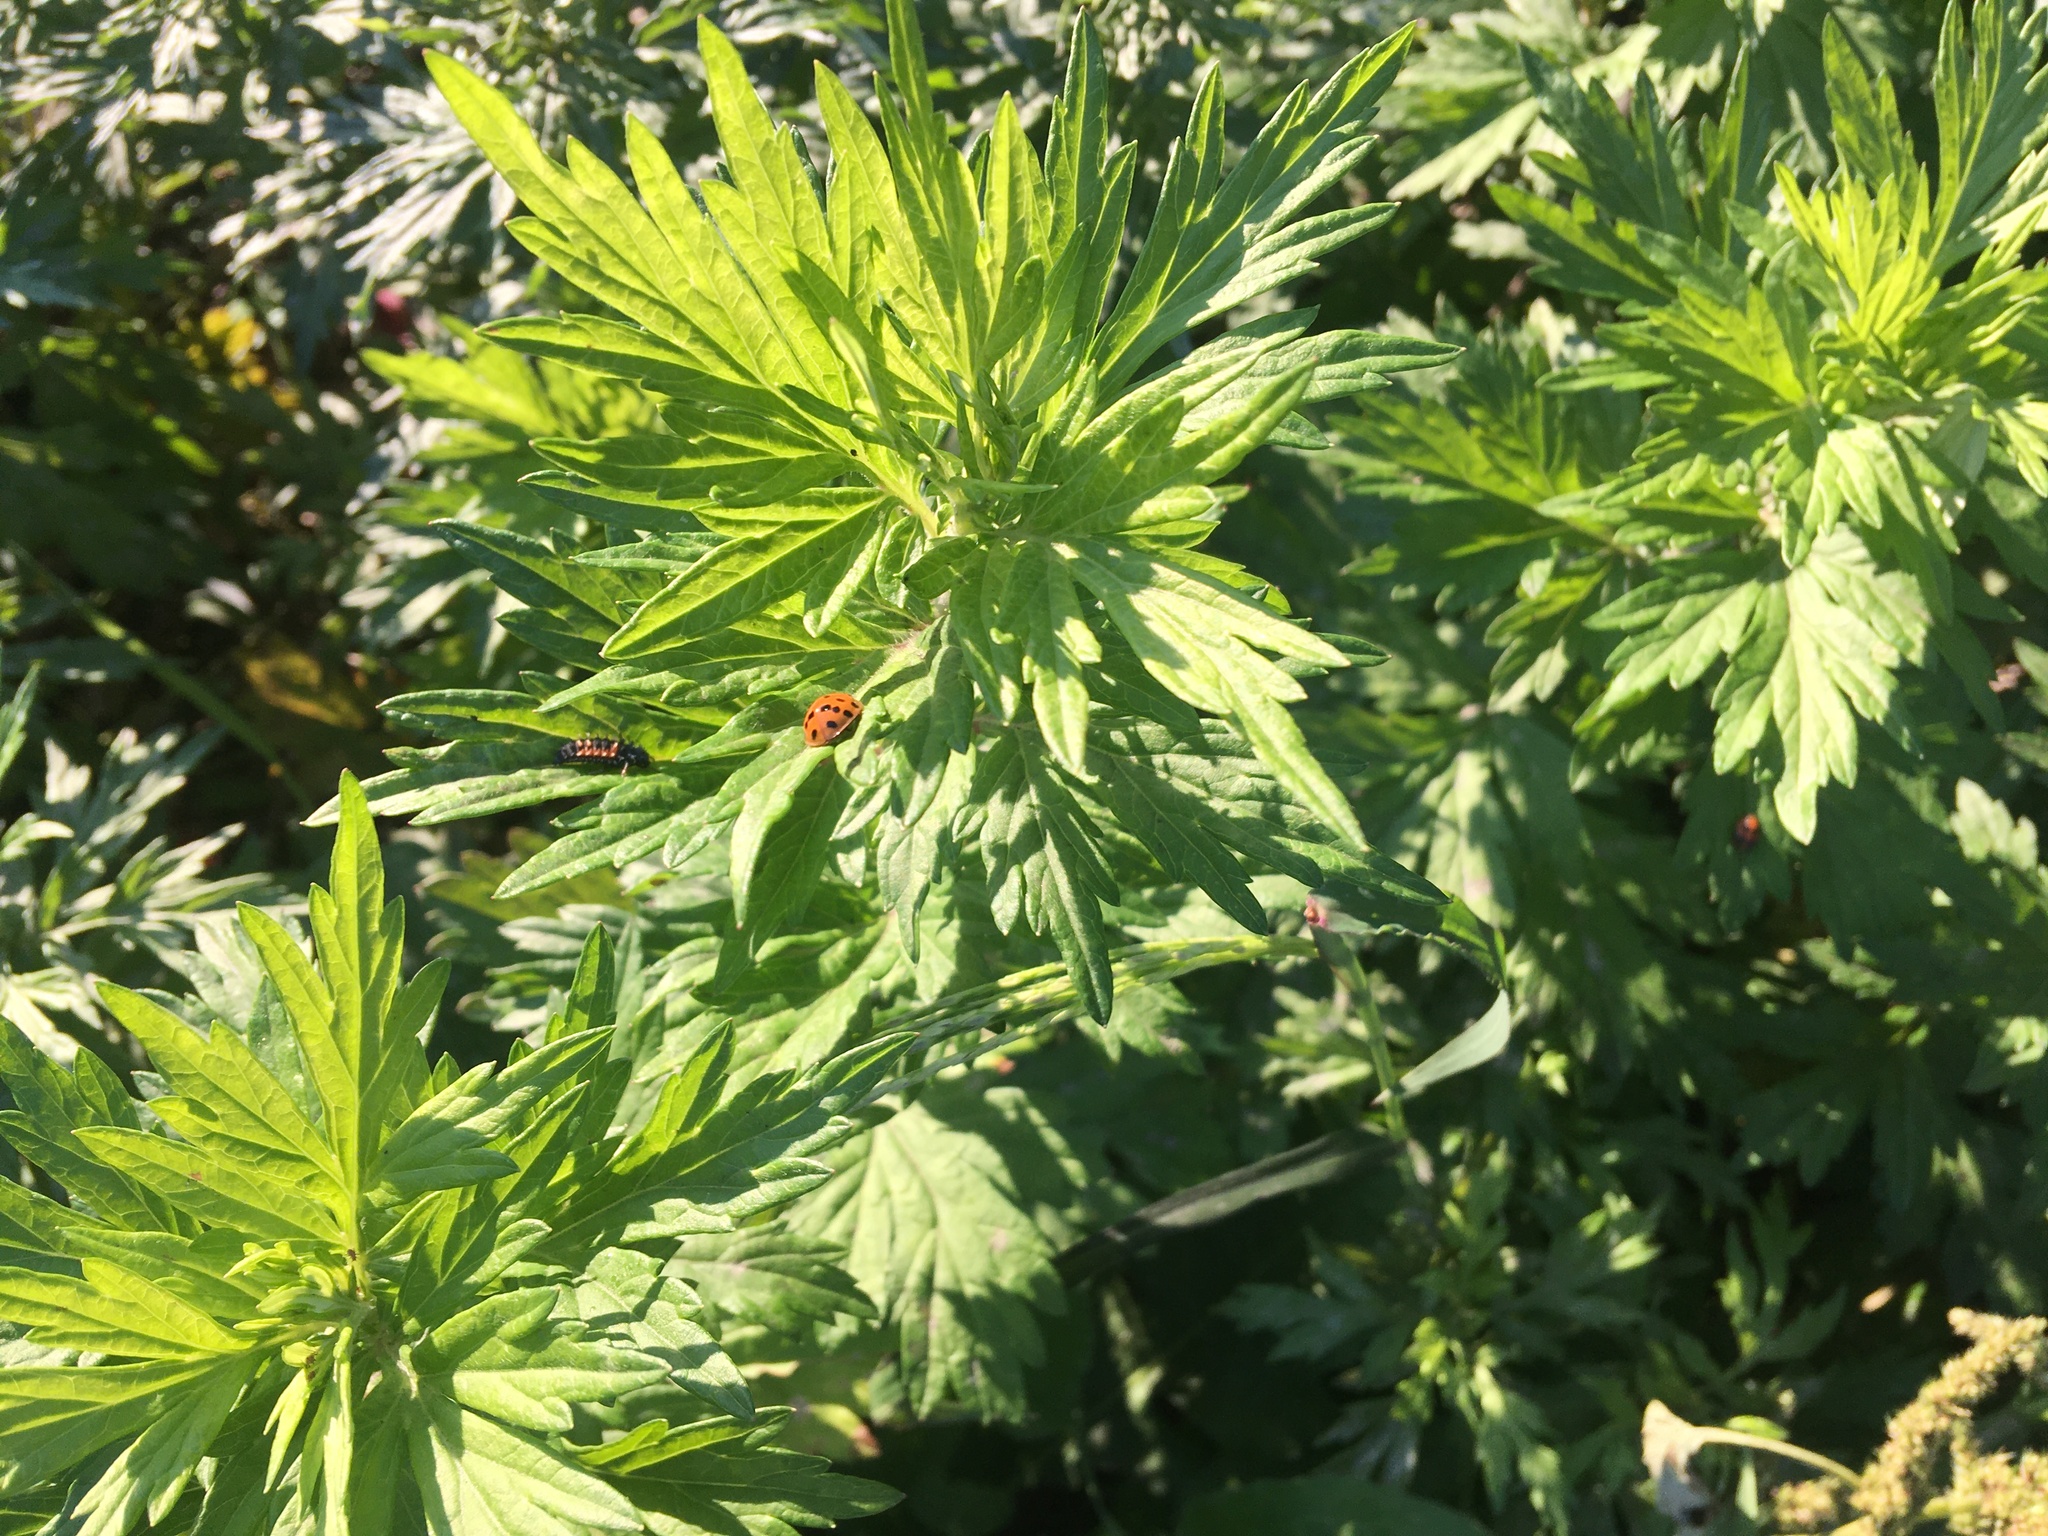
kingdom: Plantae
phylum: Tracheophyta
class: Magnoliopsida
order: Asterales
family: Asteraceae
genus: Artemisia
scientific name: Artemisia vulgaris
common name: Mugwort
